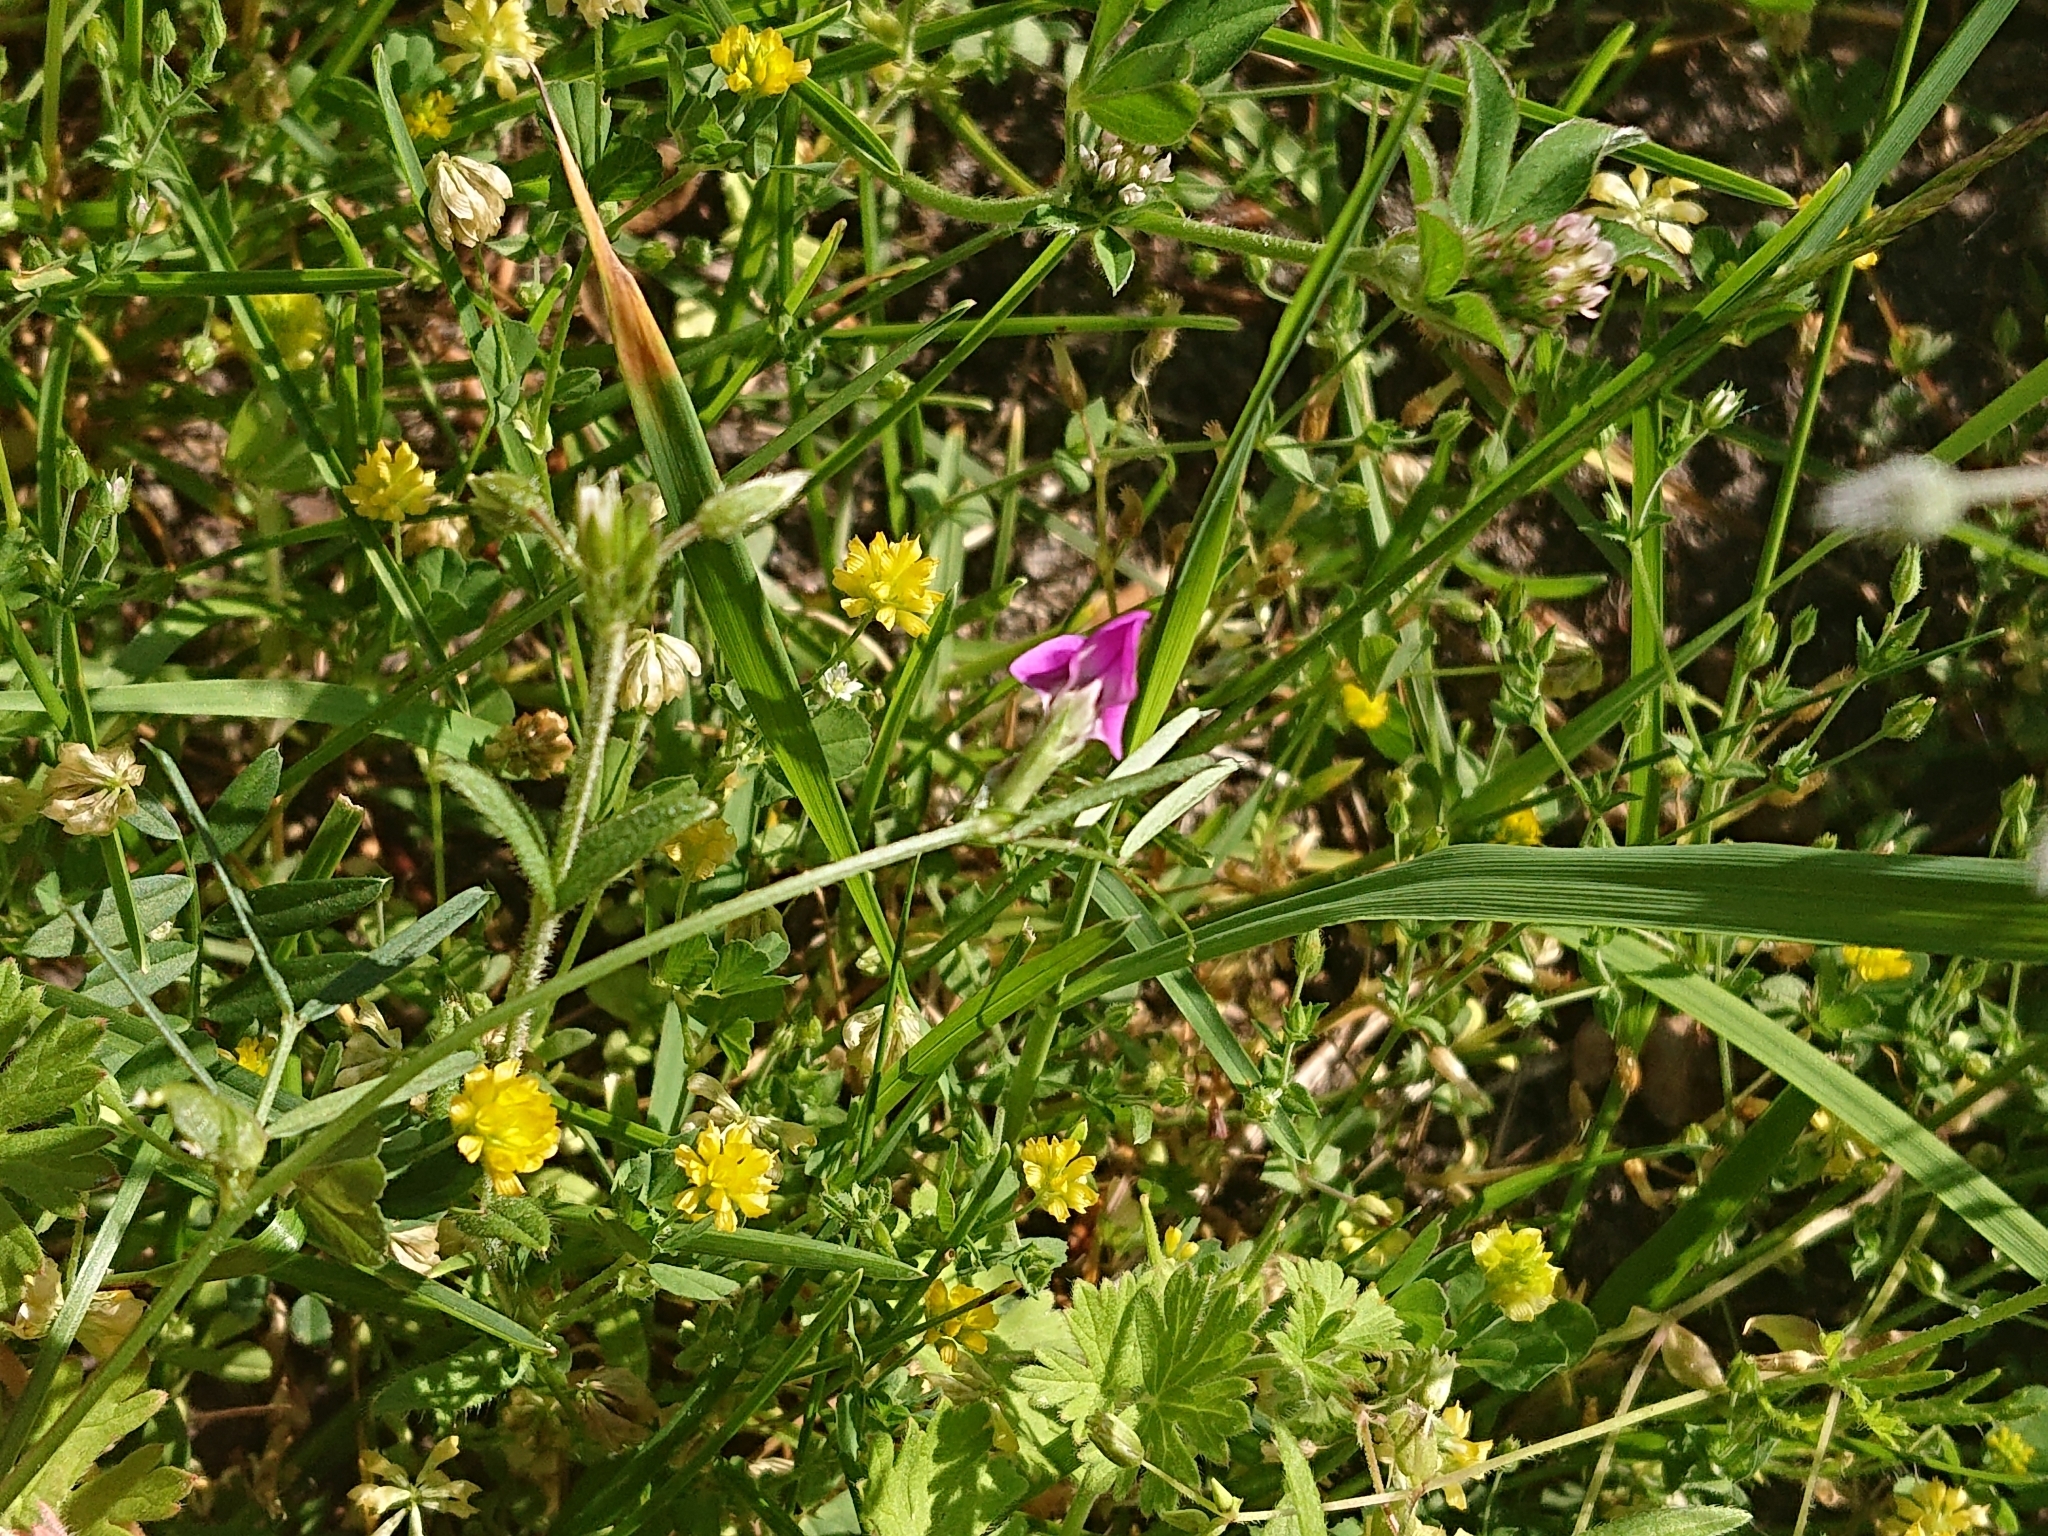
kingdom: Plantae
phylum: Tracheophyta
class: Magnoliopsida
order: Fabales
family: Fabaceae
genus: Vicia
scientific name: Vicia sativa
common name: Garden vetch
